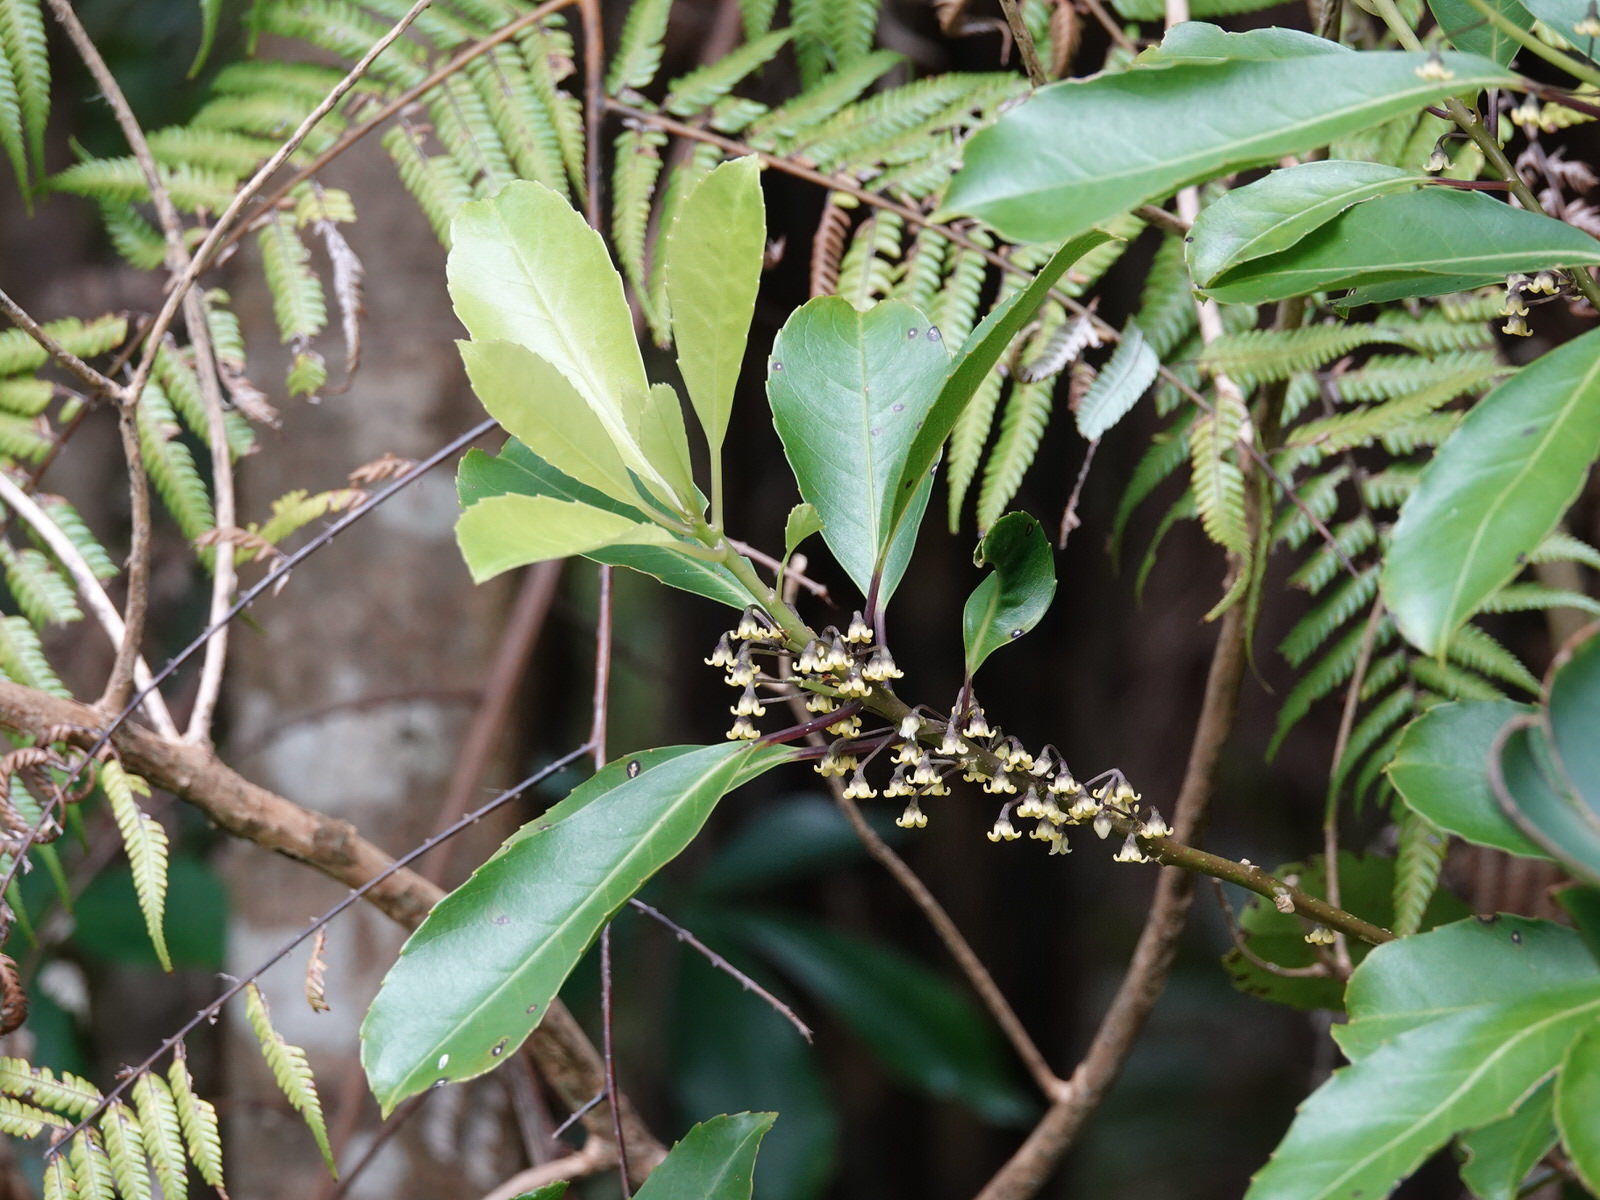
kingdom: Plantae
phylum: Tracheophyta
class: Magnoliopsida
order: Malpighiales
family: Violaceae
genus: Melicytus
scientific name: Melicytus macrophyllus
